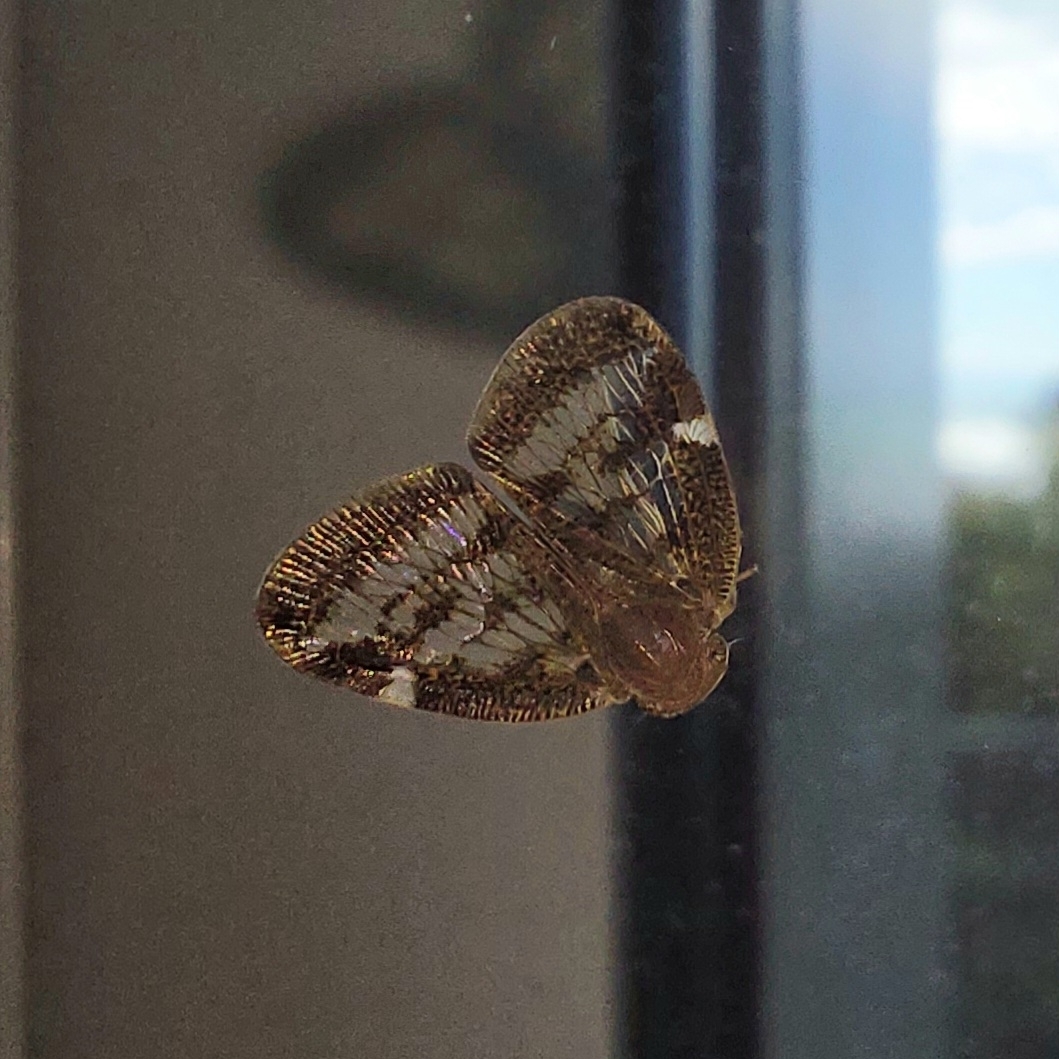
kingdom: Animalia
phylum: Arthropoda
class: Insecta
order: Hemiptera
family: Ricaniidae
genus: Scolypopa
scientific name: Scolypopa australis
